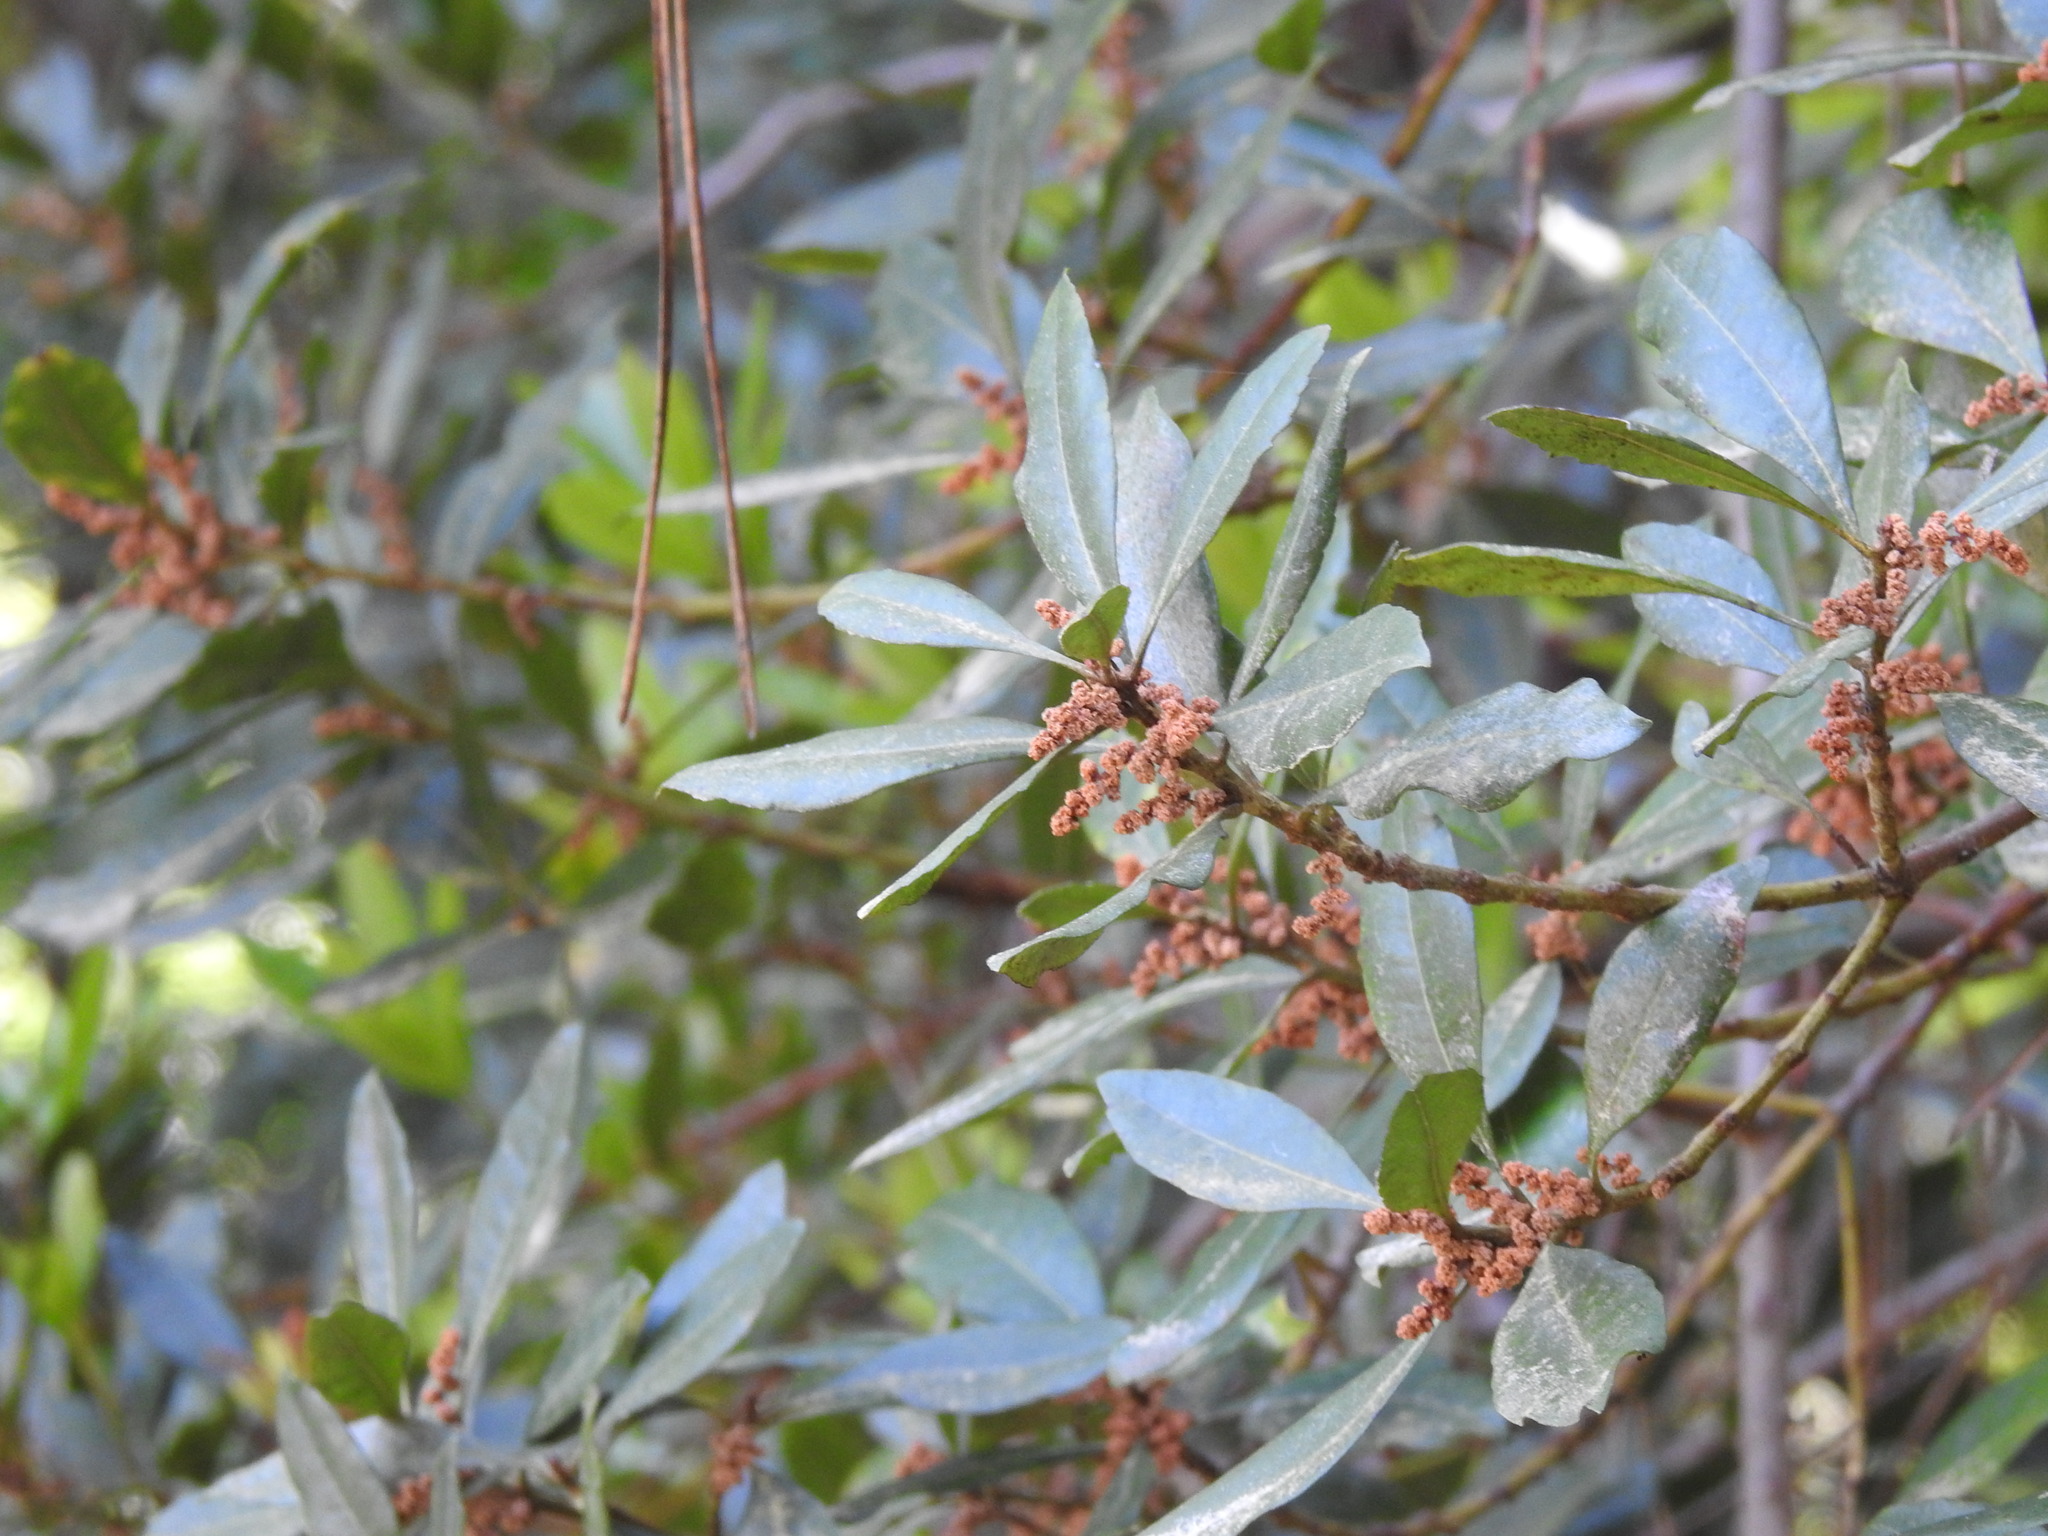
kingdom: Plantae
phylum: Tracheophyta
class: Magnoliopsida
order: Fagales
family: Myricaceae
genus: Morella
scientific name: Morella faya
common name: Firetree
